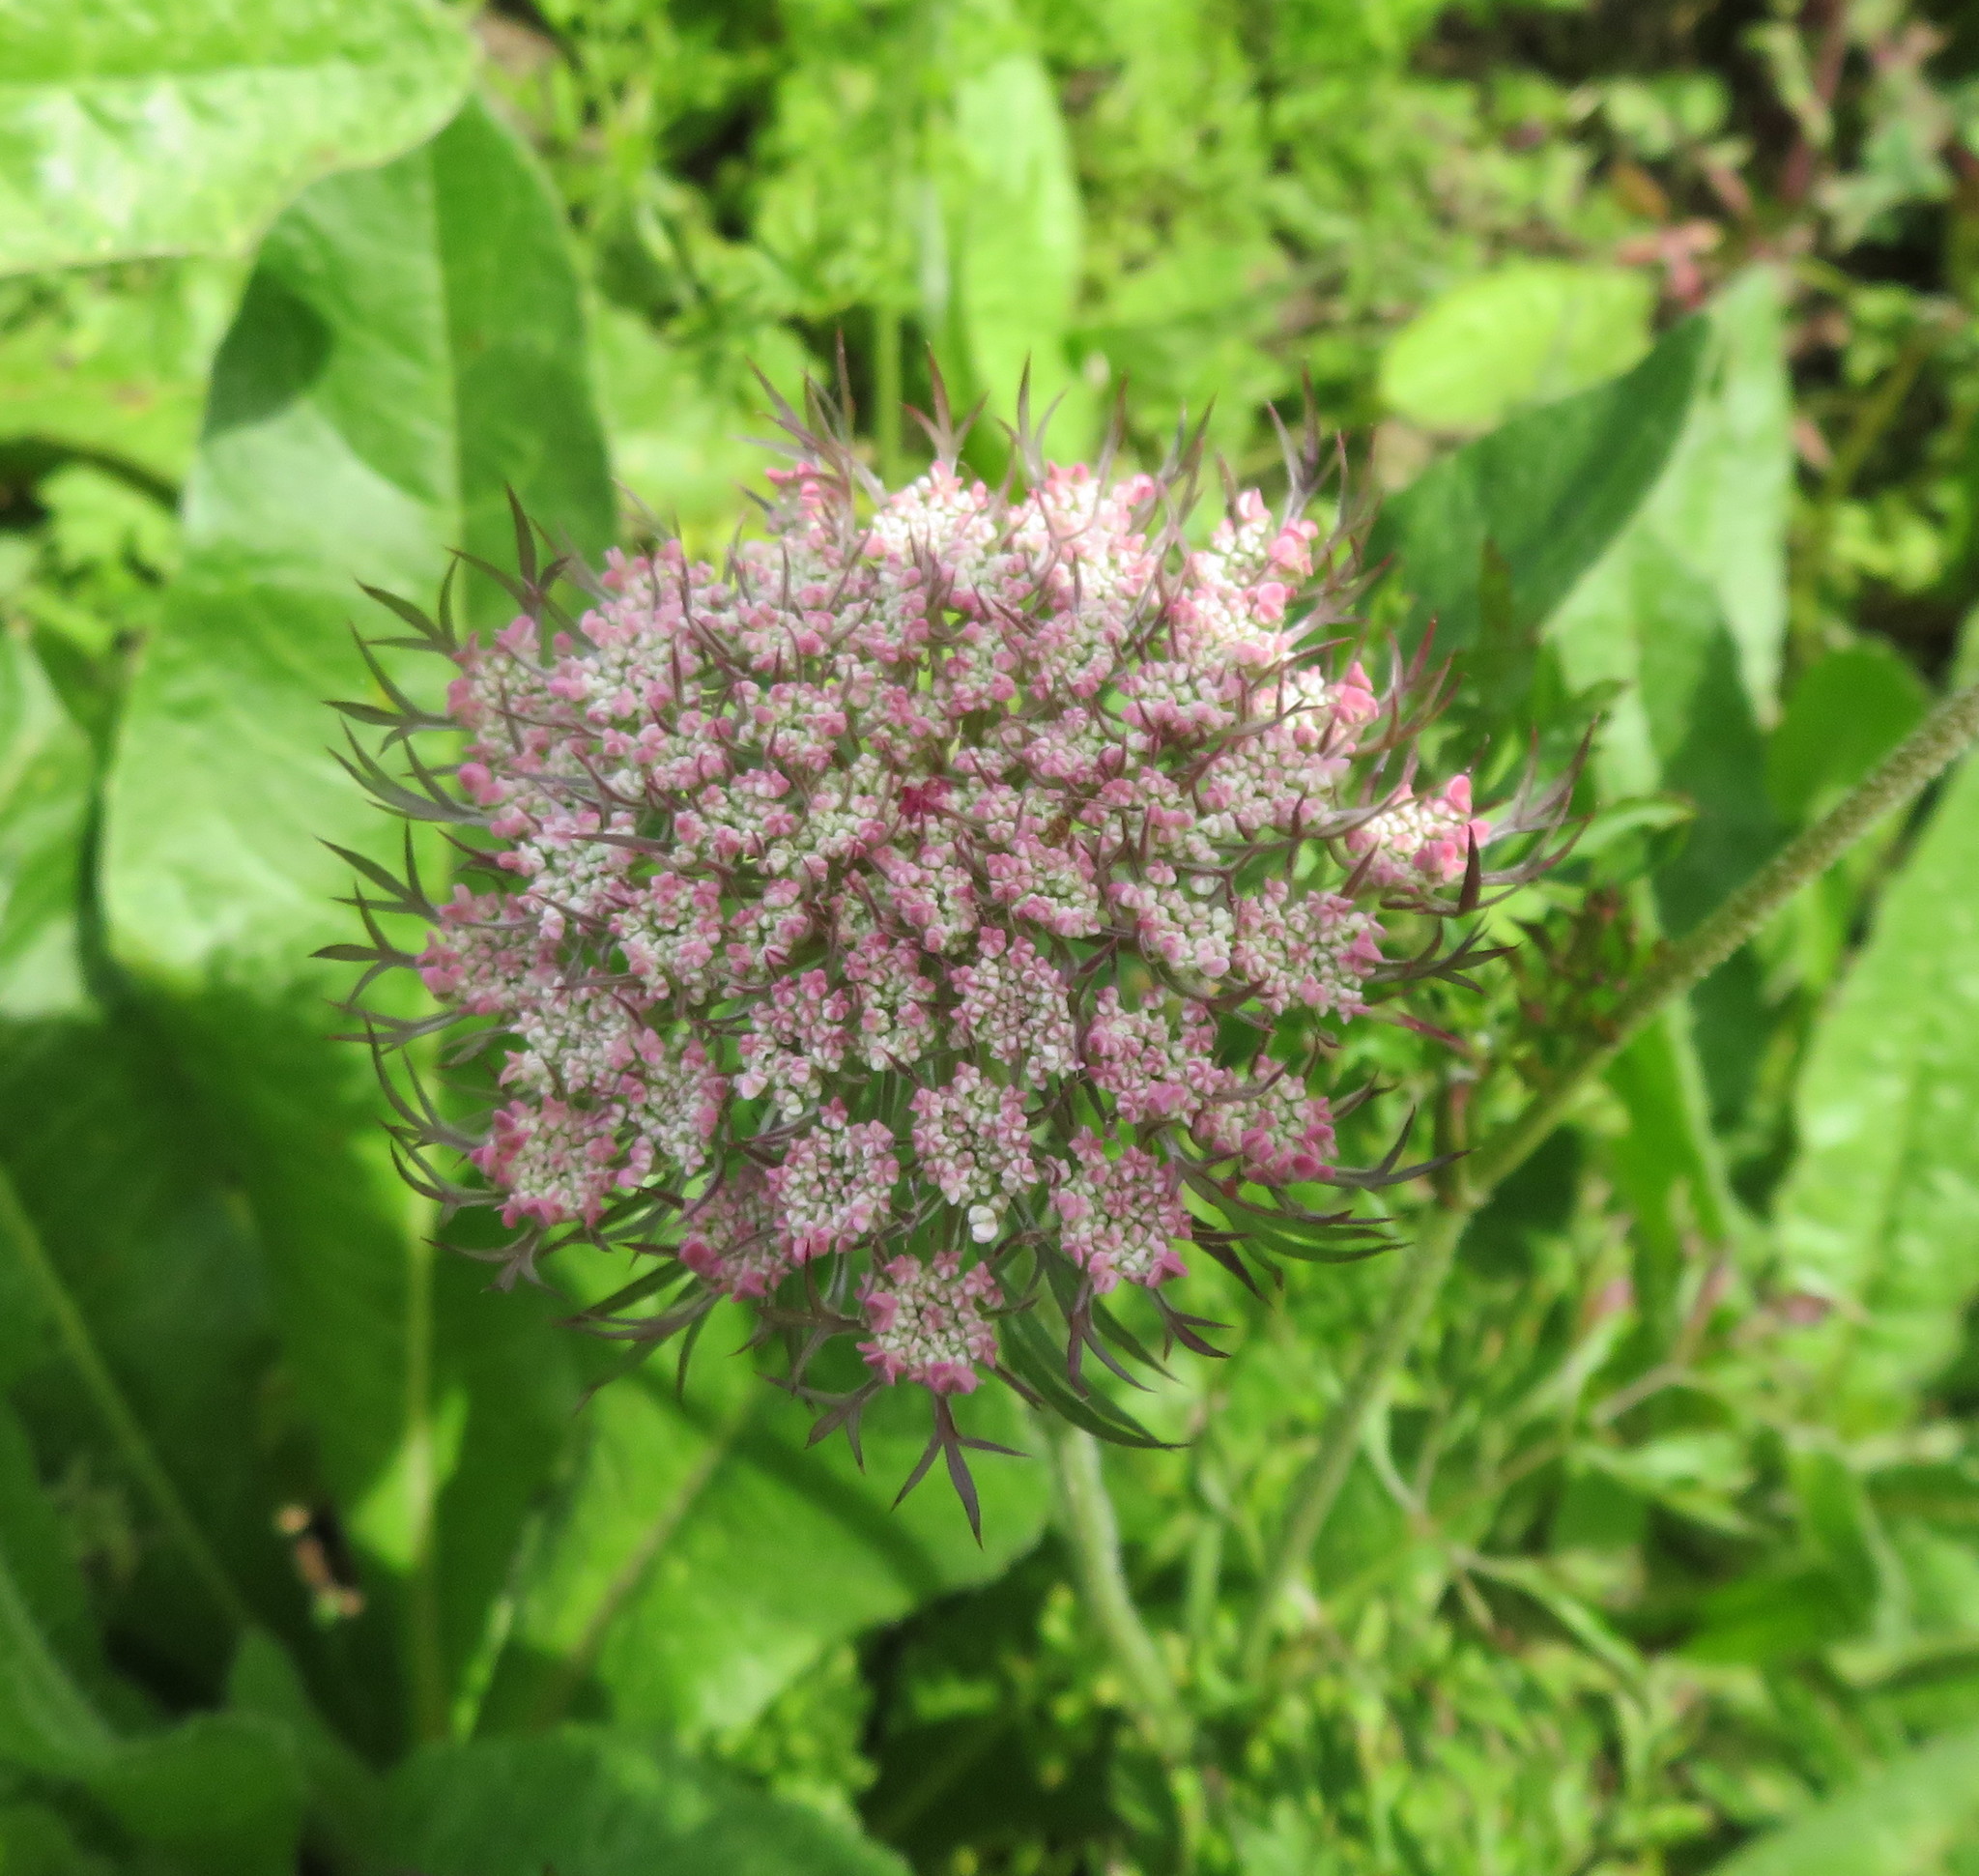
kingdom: Plantae
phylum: Tracheophyta
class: Magnoliopsida
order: Apiales
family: Apiaceae
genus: Daucus
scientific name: Daucus carota
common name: Wild carrot
